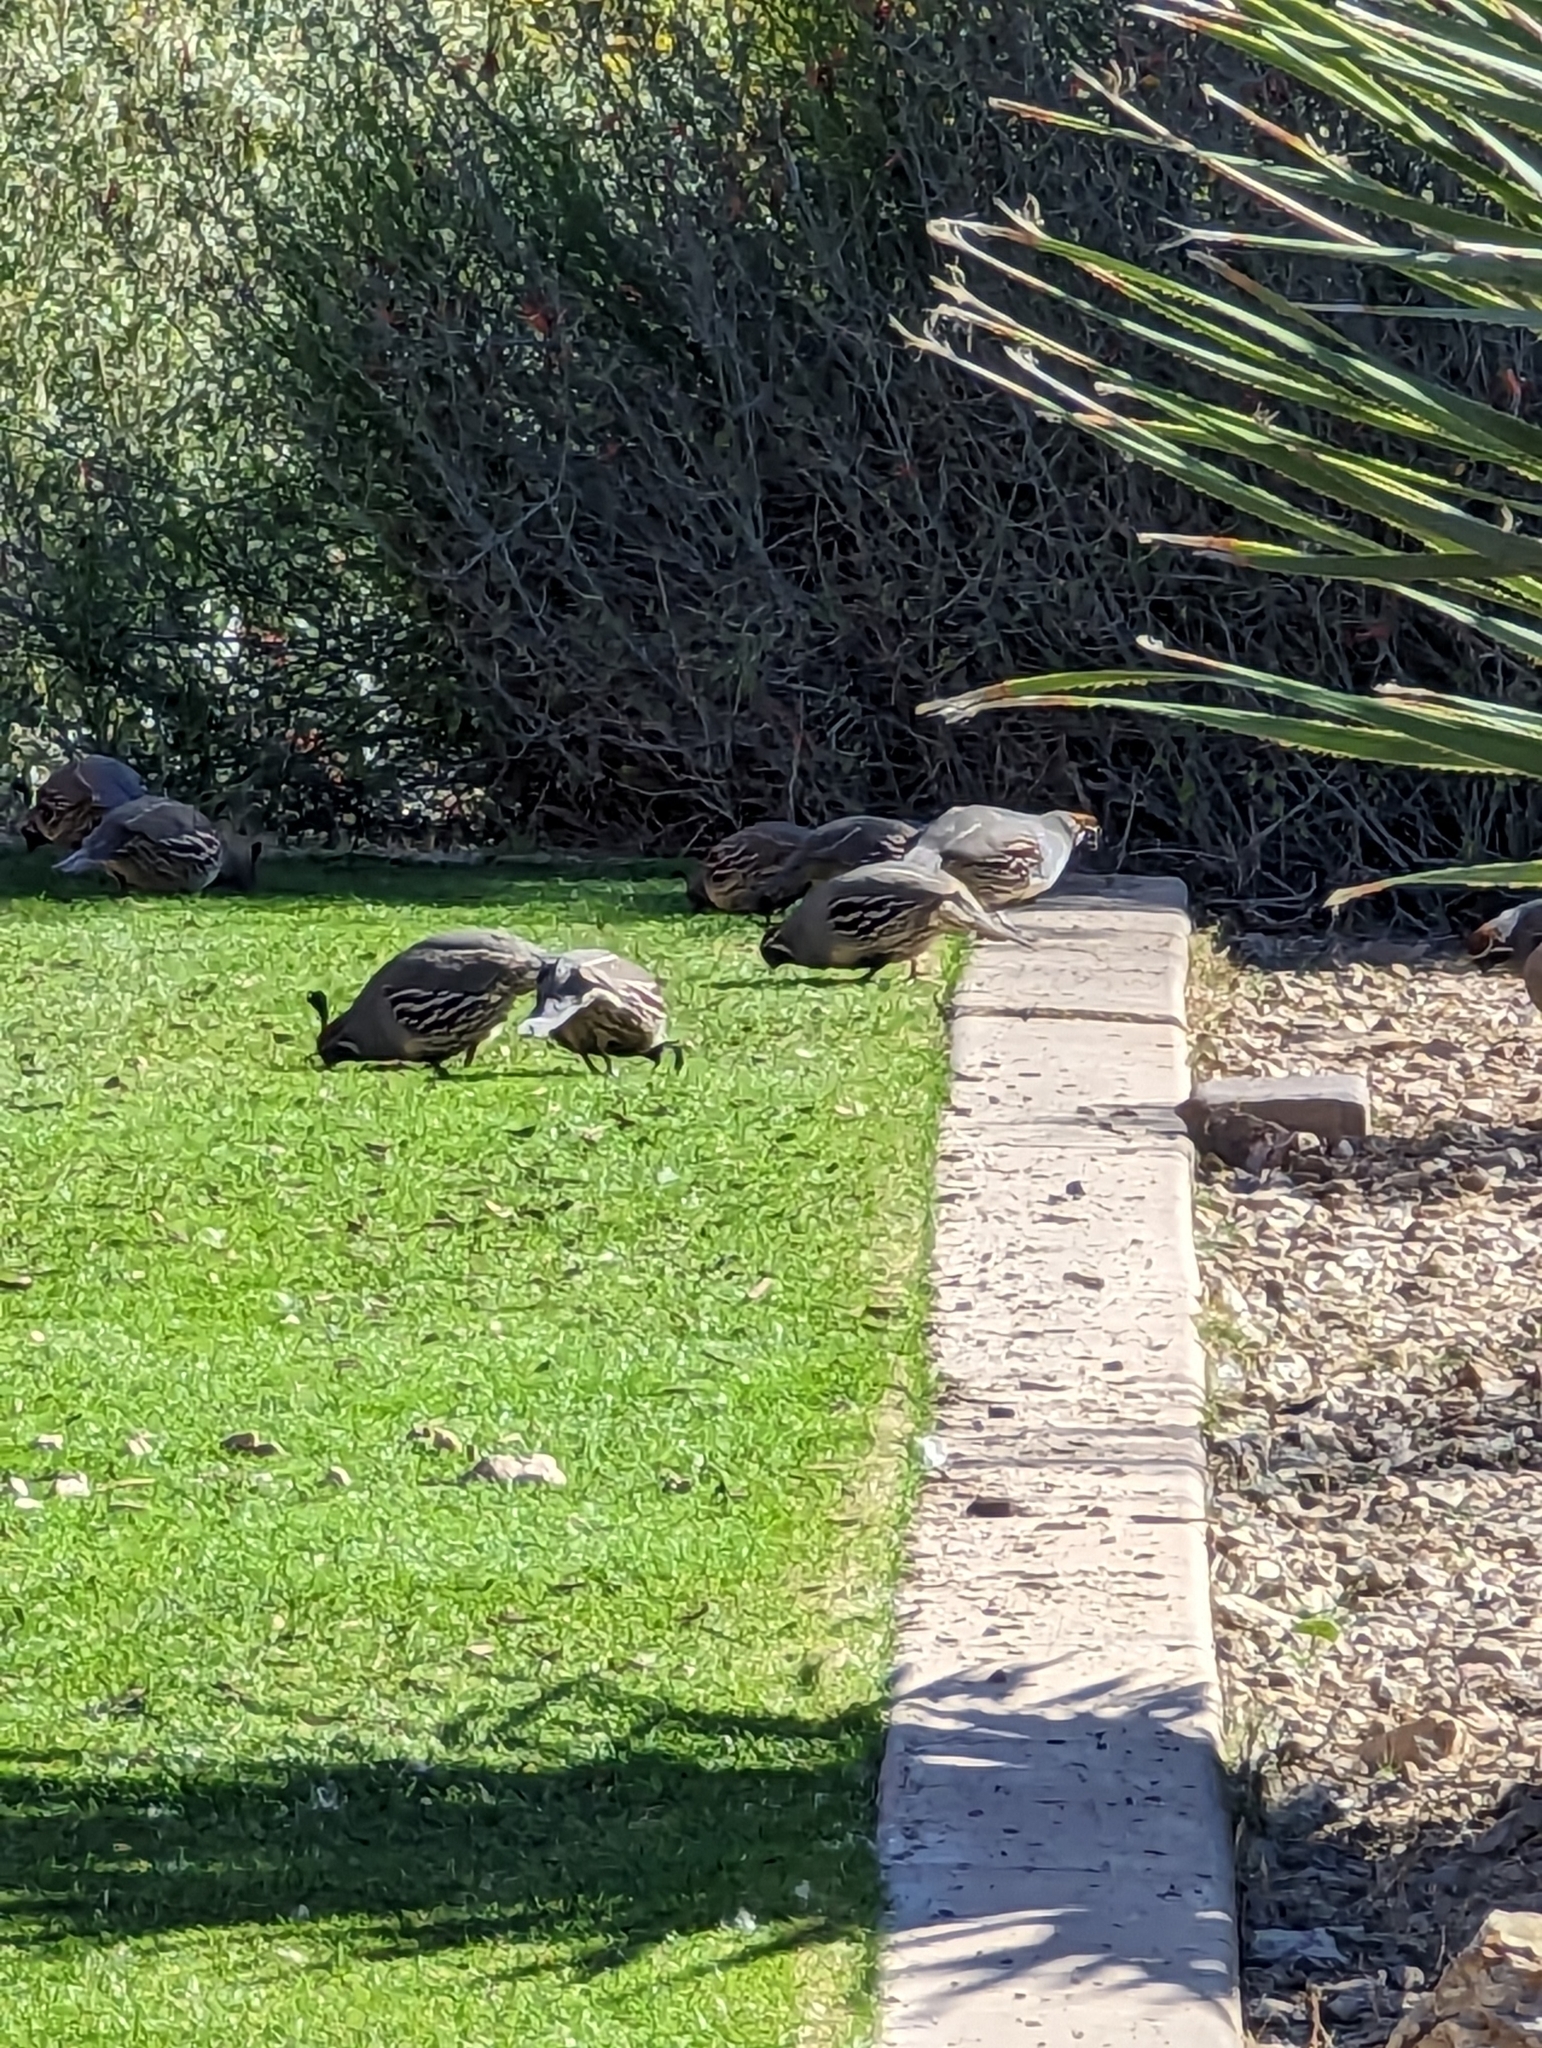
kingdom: Animalia
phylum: Chordata
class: Aves
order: Galliformes
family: Odontophoridae
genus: Callipepla
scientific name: Callipepla gambelii
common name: Gambel's quail
